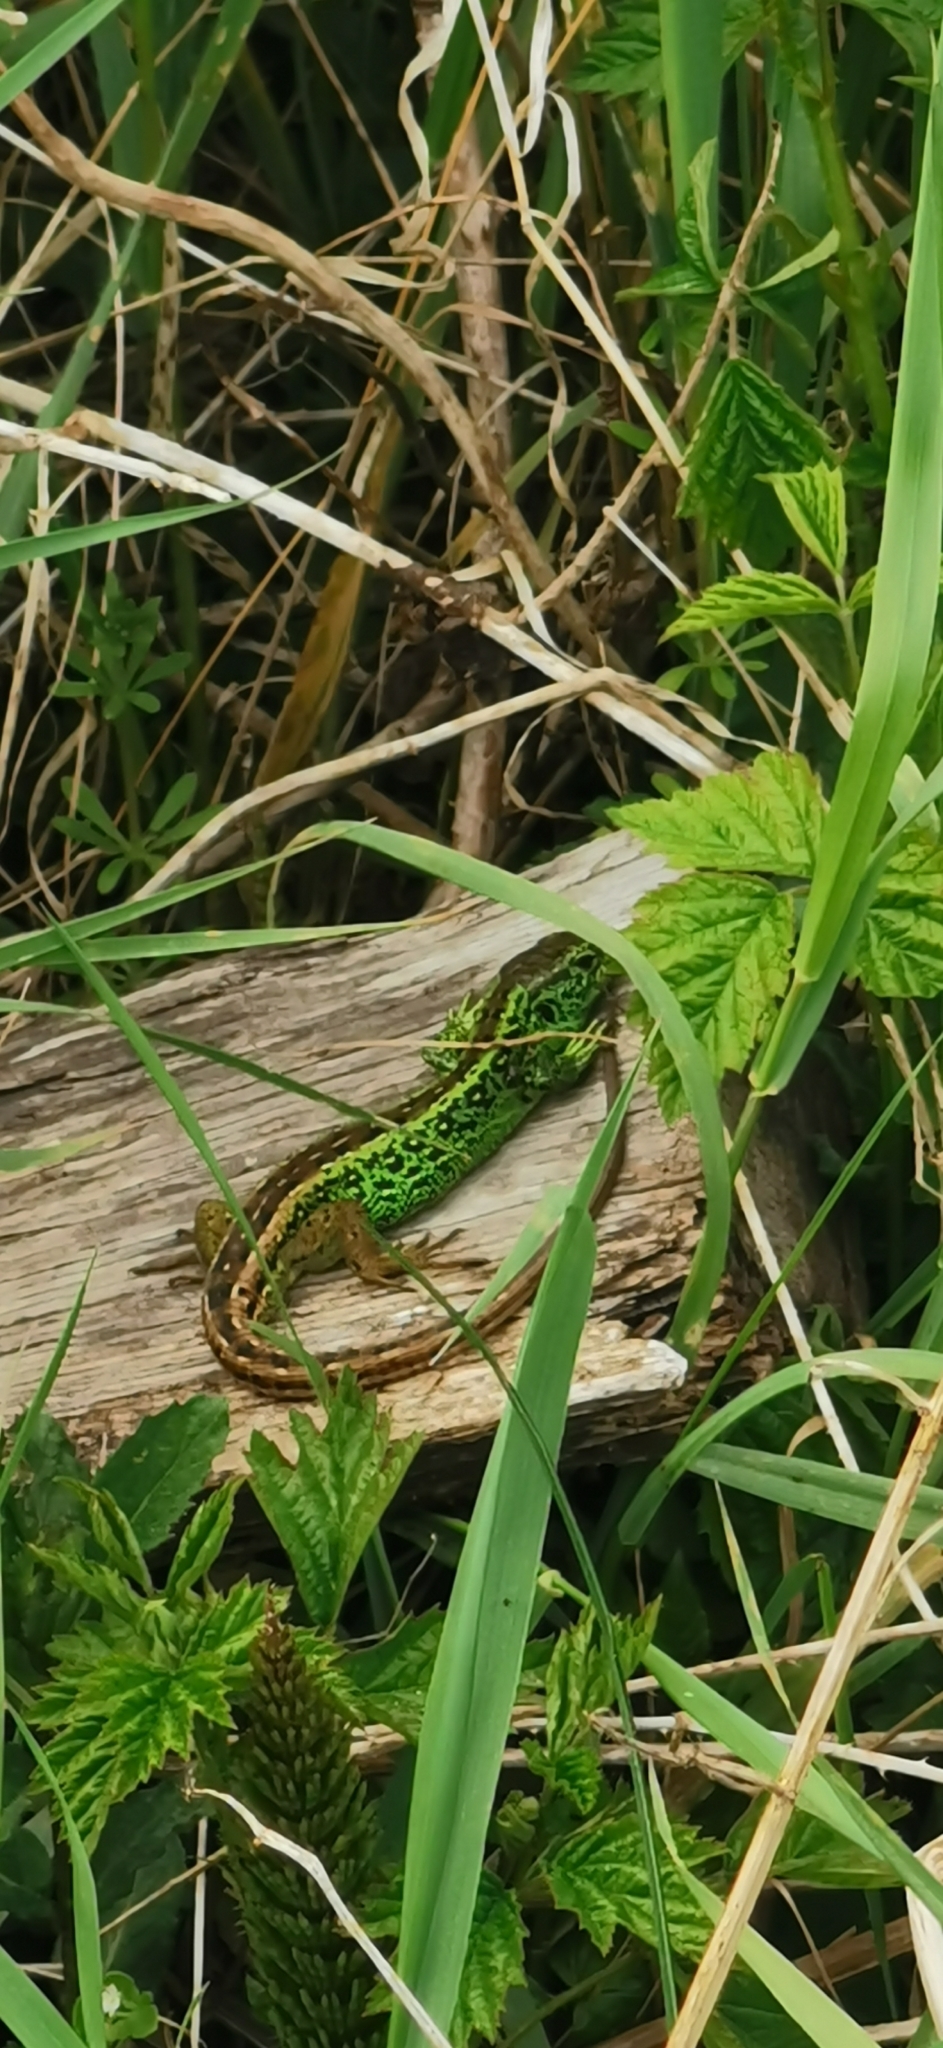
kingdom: Animalia
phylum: Chordata
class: Squamata
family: Lacertidae
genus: Lacerta
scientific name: Lacerta agilis
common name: Sand lizard
